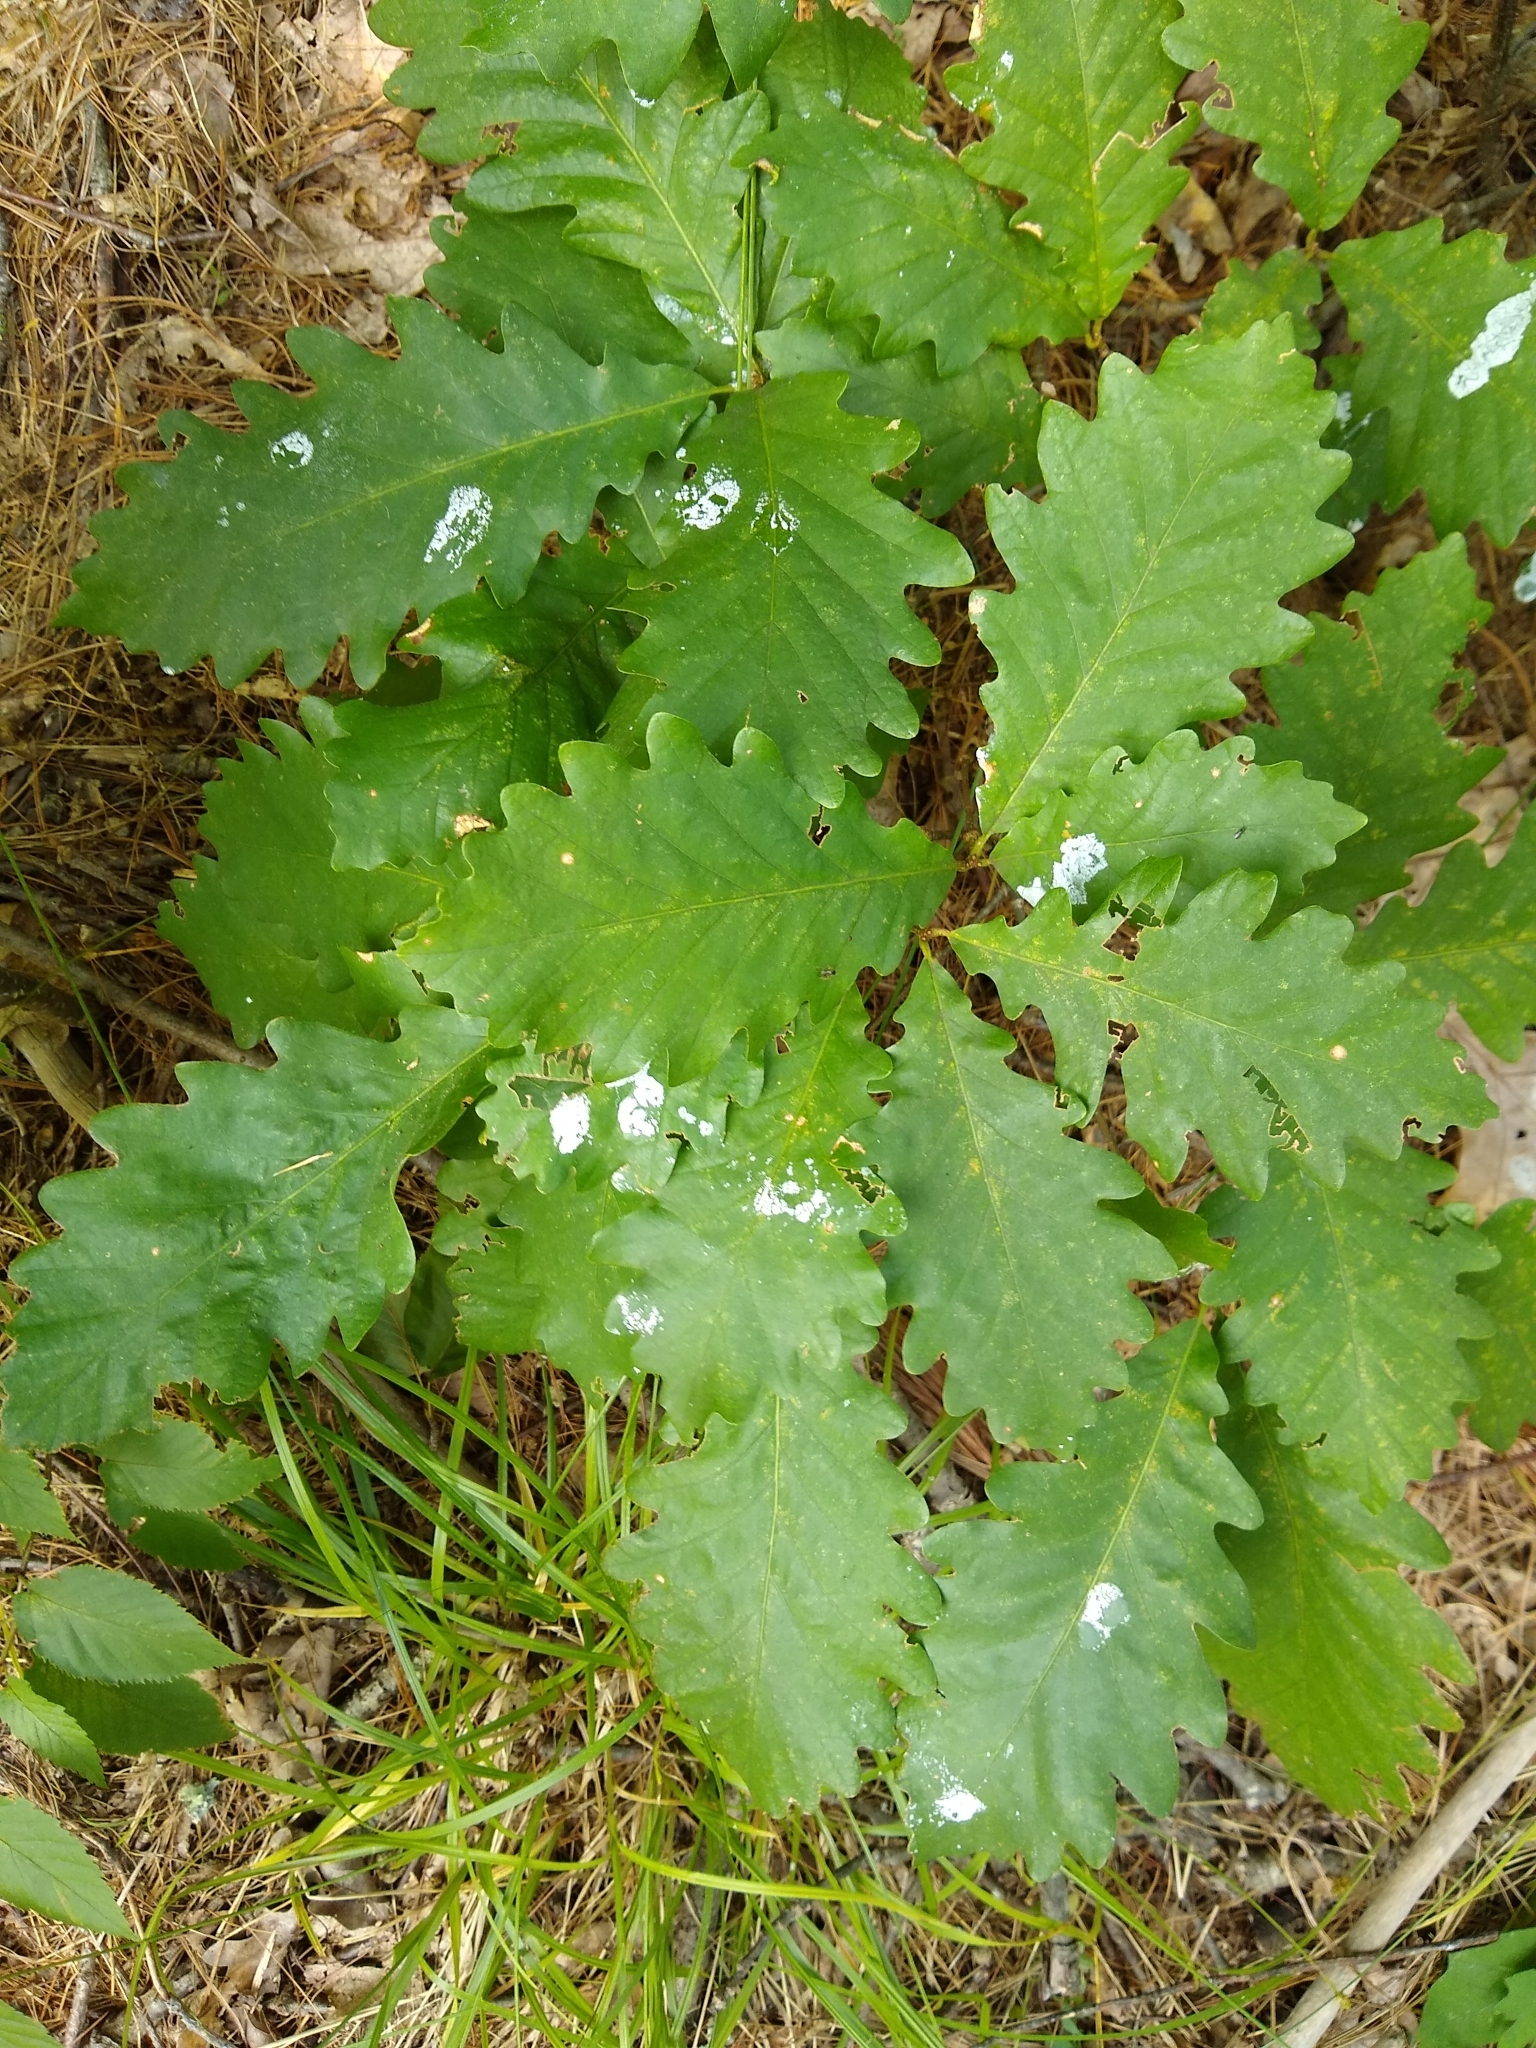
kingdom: Plantae
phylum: Tracheophyta
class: Magnoliopsida
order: Fagales
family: Fagaceae
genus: Quercus
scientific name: Quercus montana
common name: Chestnut oak
